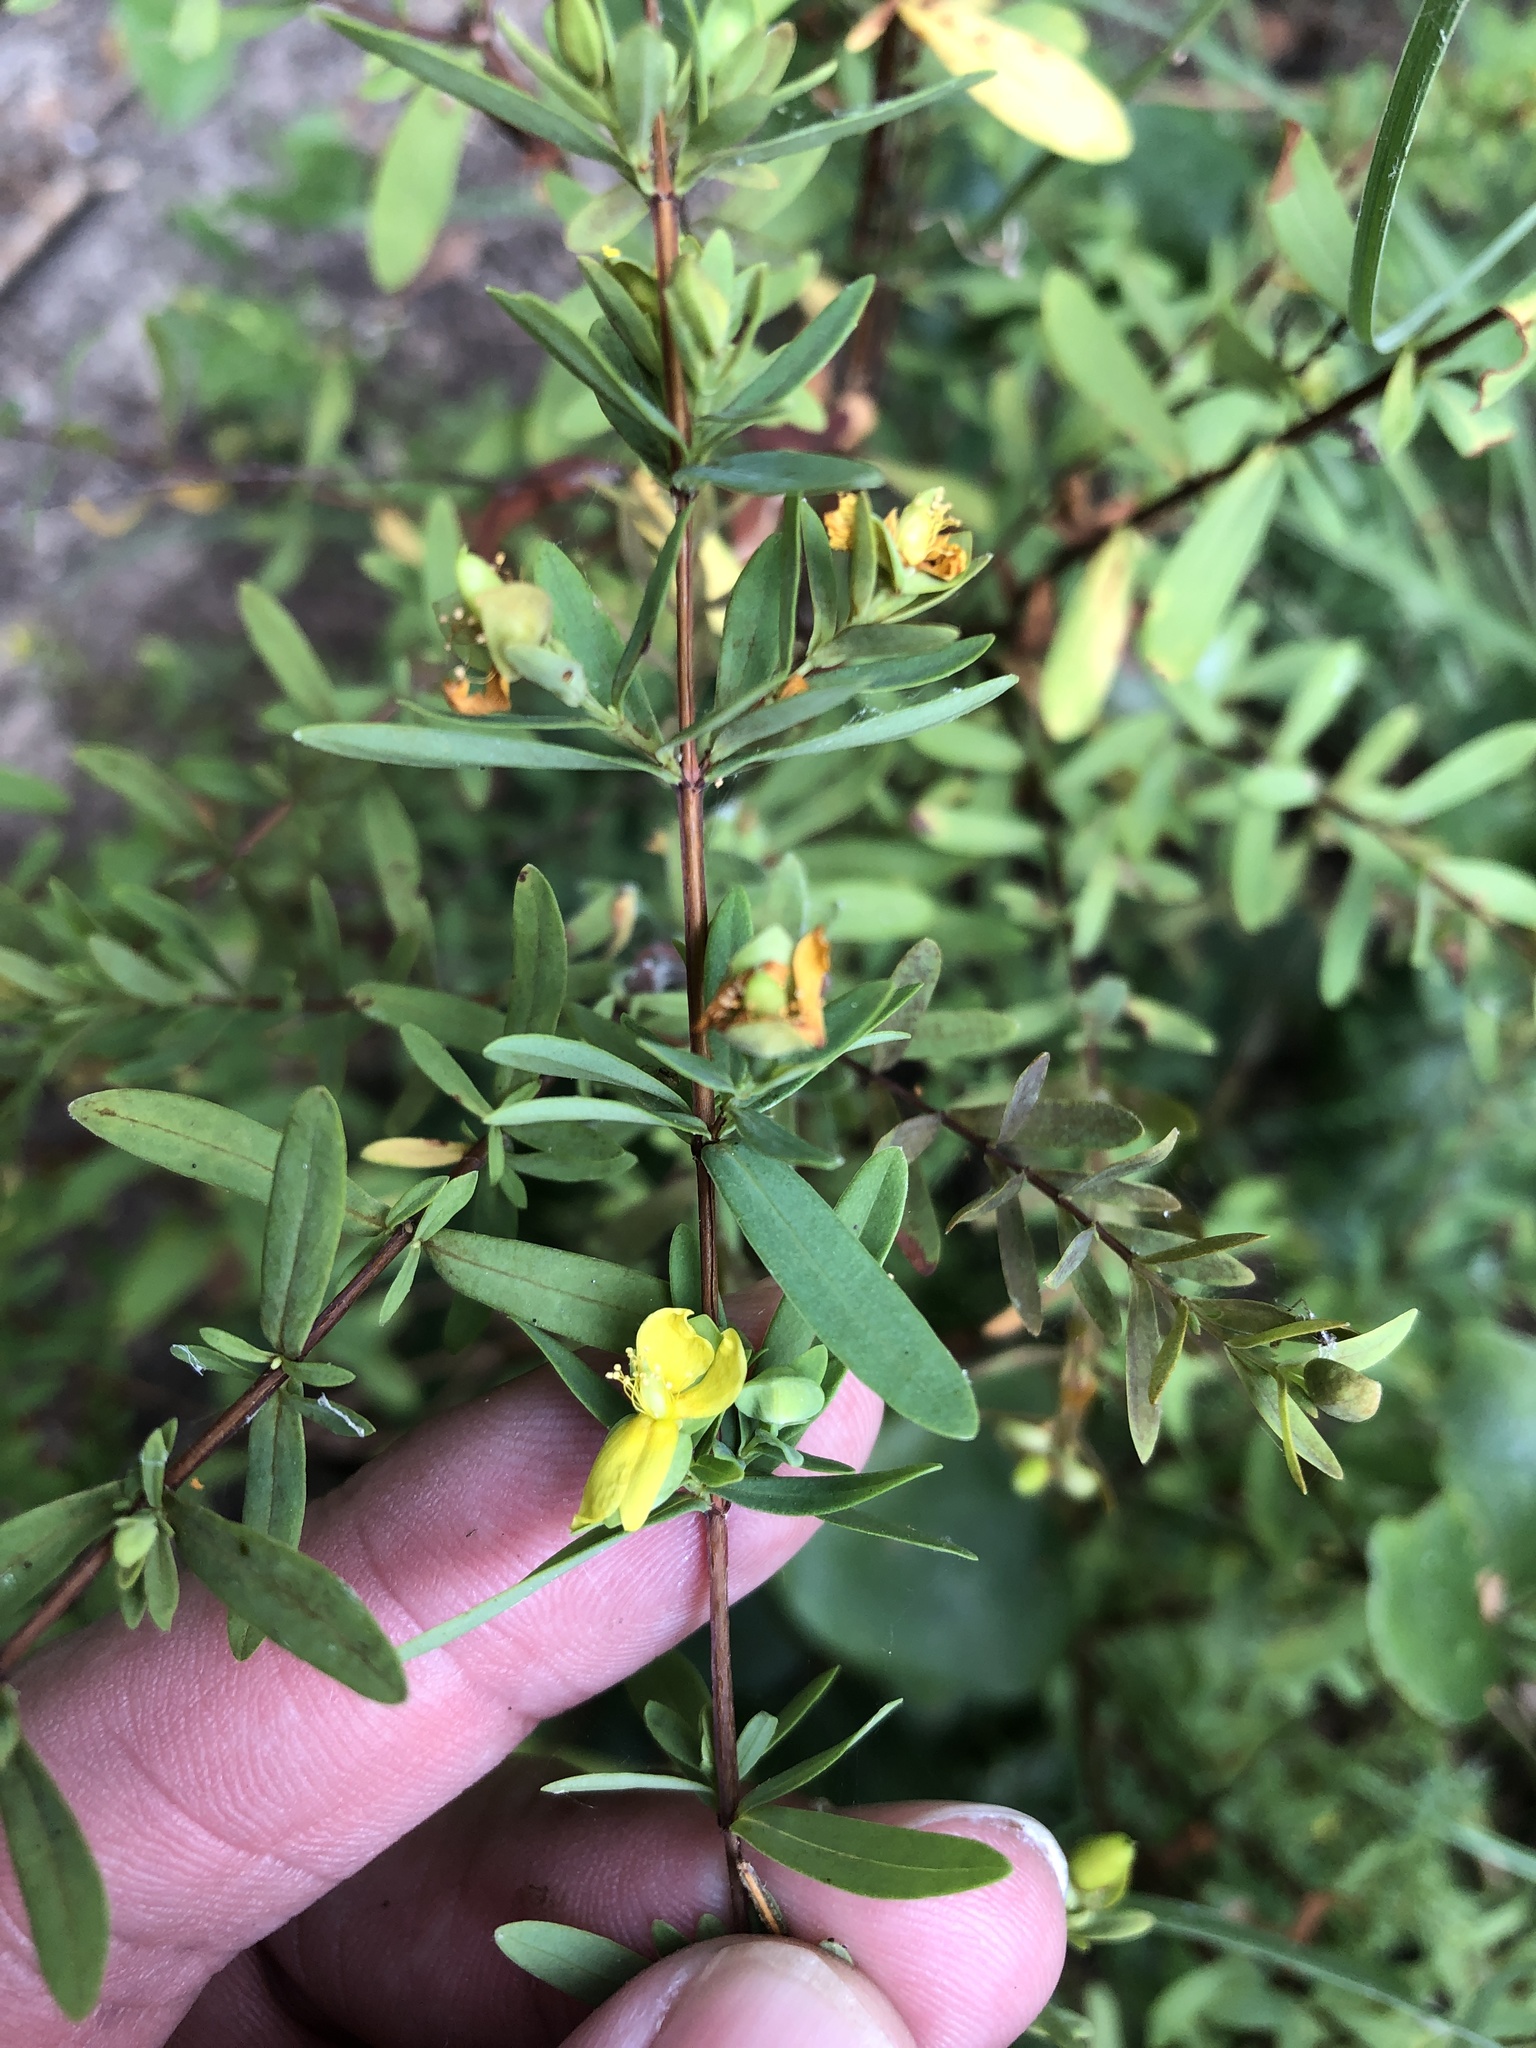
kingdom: Plantae
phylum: Tracheophyta
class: Magnoliopsida
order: Malpighiales
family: Hypericaceae
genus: Hypericum
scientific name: Hypericum hypericoides
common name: St. andrew's cross
